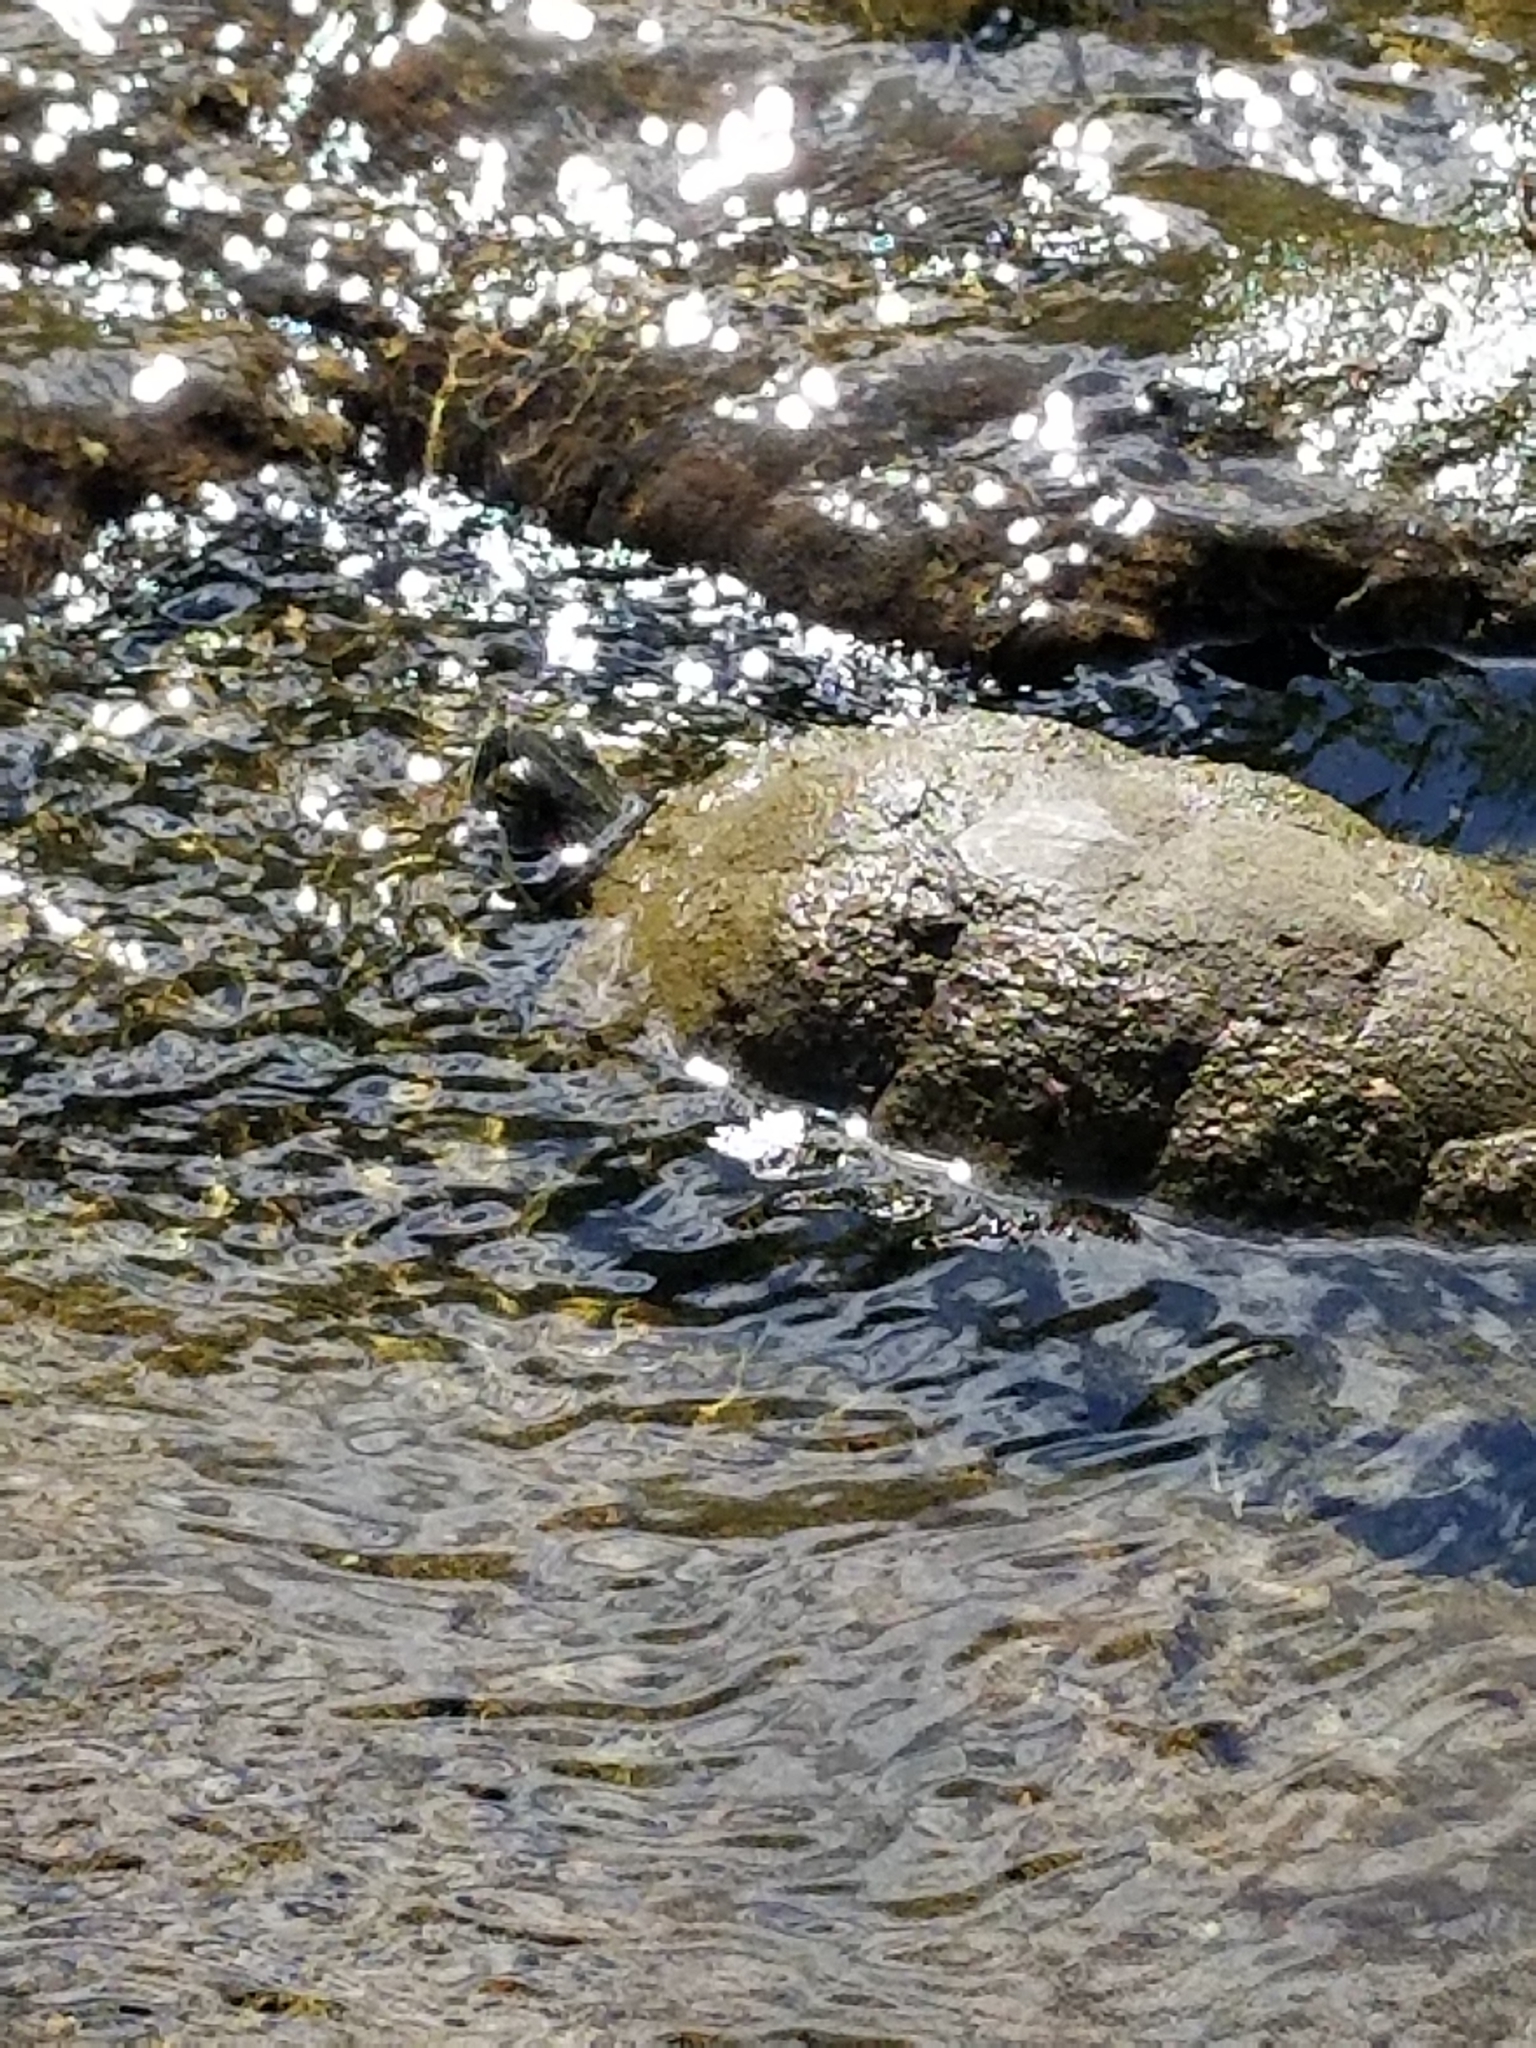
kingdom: Animalia
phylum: Chordata
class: Testudines
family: Emydidae
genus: Trachemys
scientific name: Trachemys scripta
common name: Slider
